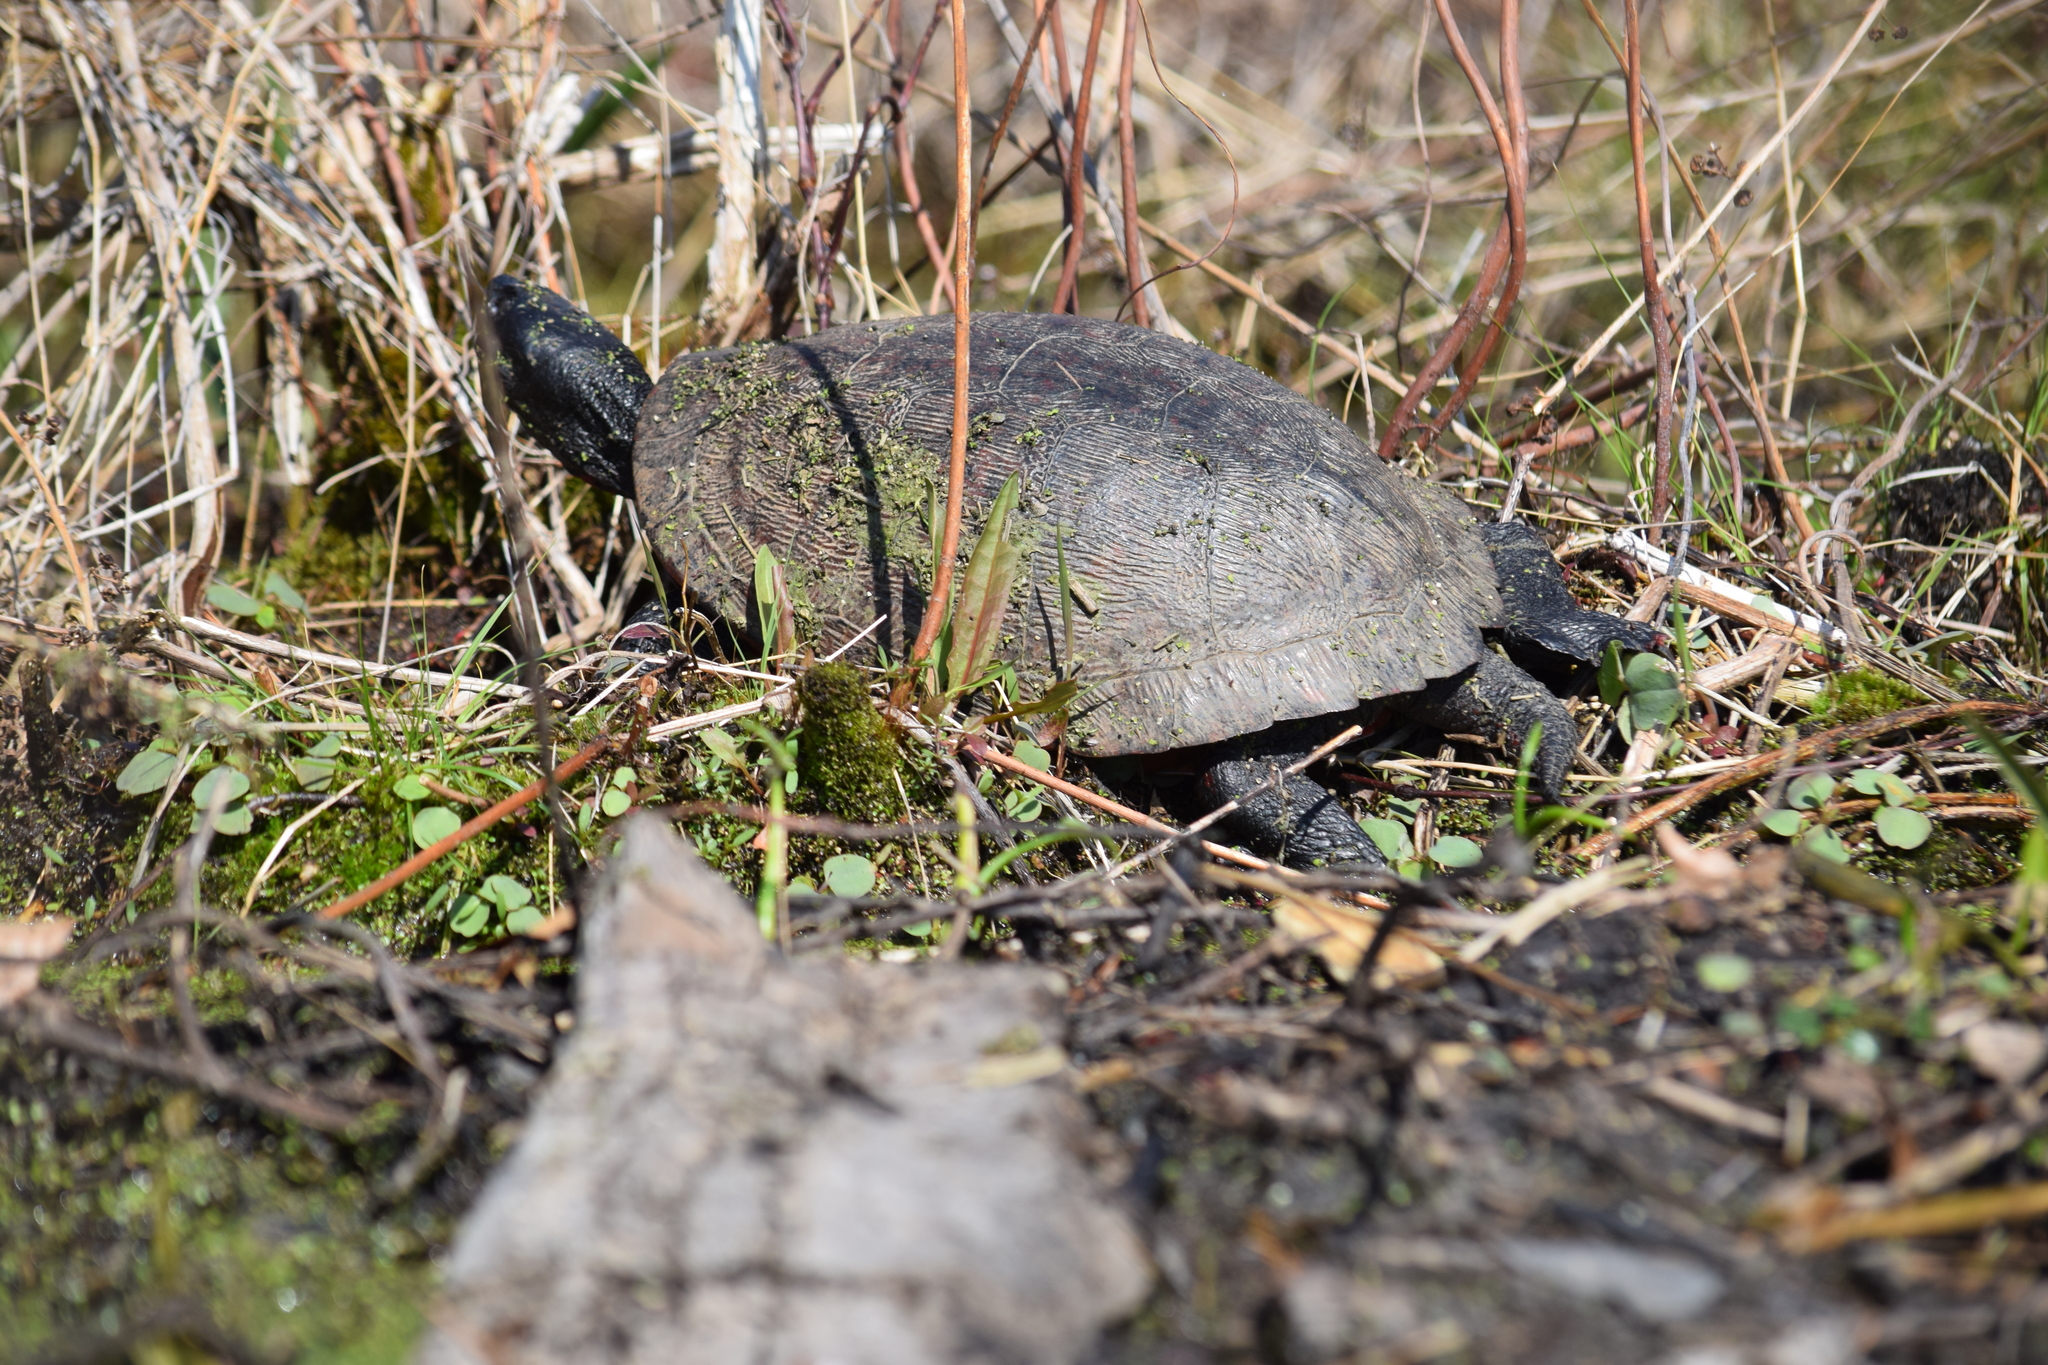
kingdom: Animalia
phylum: Chordata
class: Testudines
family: Emydidae
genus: Pseudemys
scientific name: Pseudemys rubriventris
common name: American red-bellied turtle
